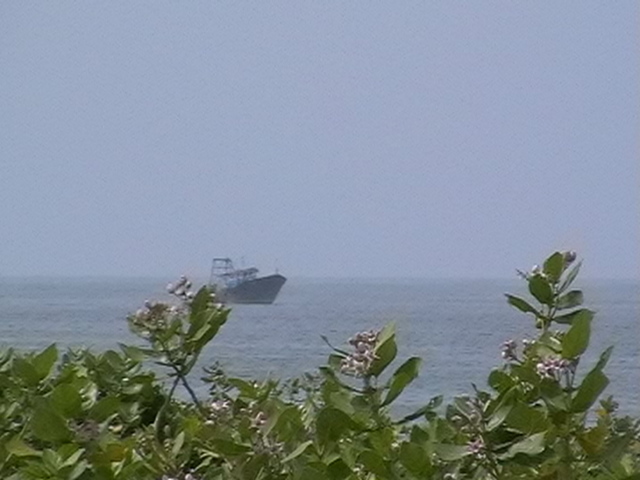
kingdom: Plantae
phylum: Tracheophyta
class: Magnoliopsida
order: Gentianales
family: Apocynaceae
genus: Calotropis
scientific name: Calotropis gigantea
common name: Crown flower
